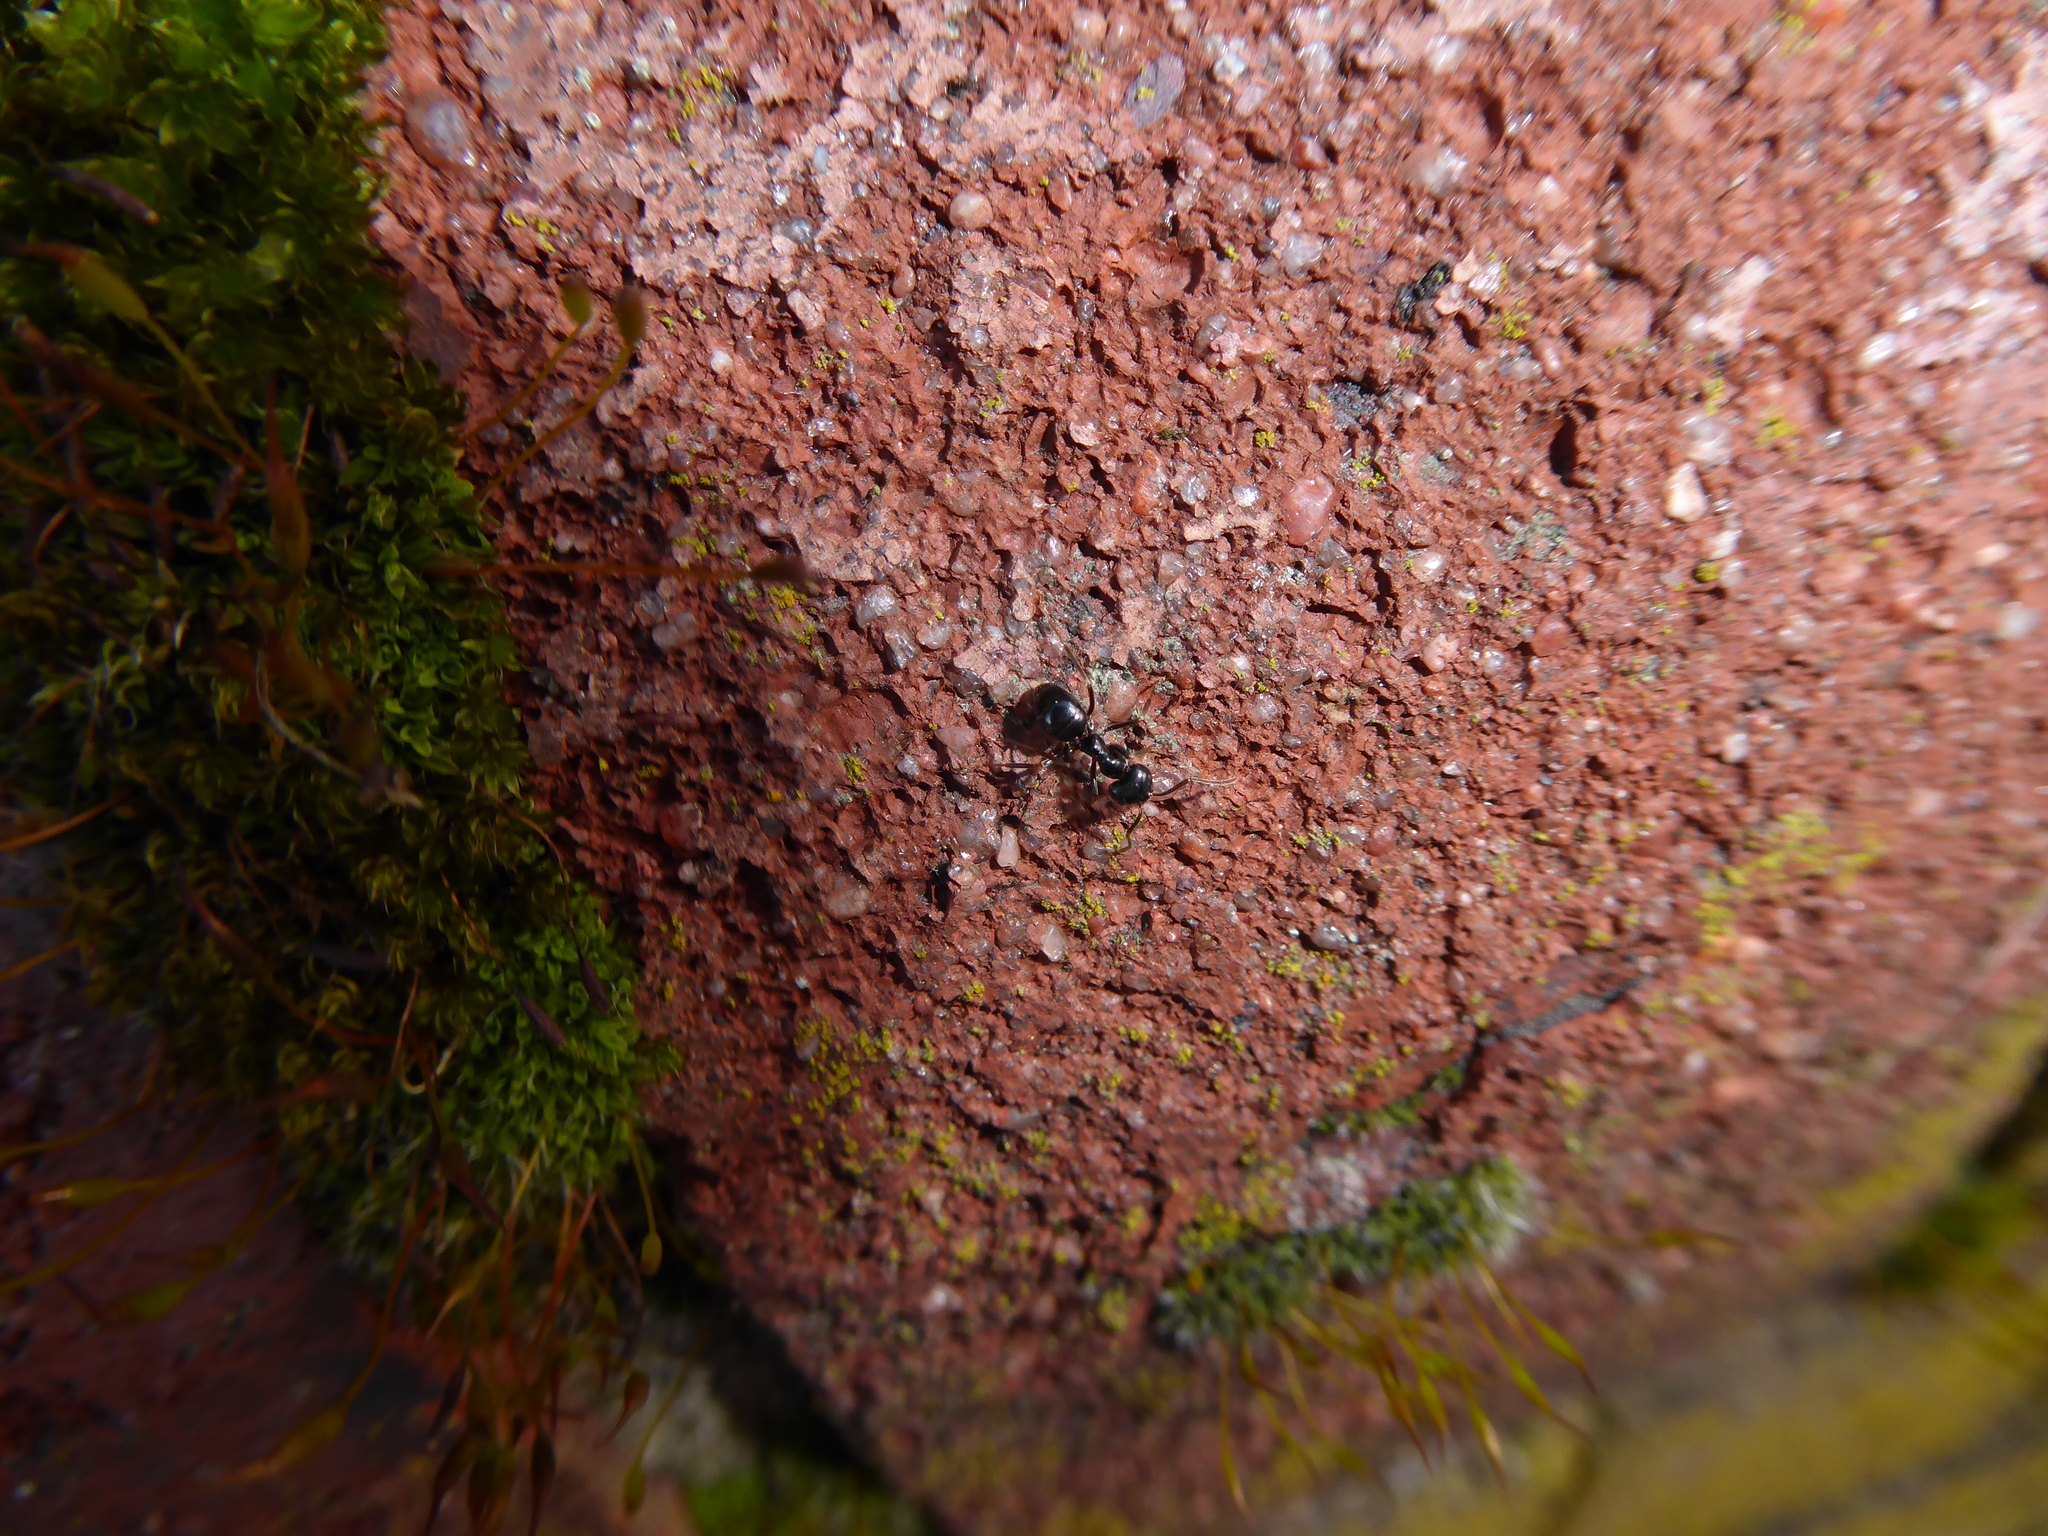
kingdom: Animalia
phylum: Arthropoda
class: Insecta
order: Hymenoptera
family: Formicidae
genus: Lasius
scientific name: Lasius fuliginosus
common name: Jet ant
